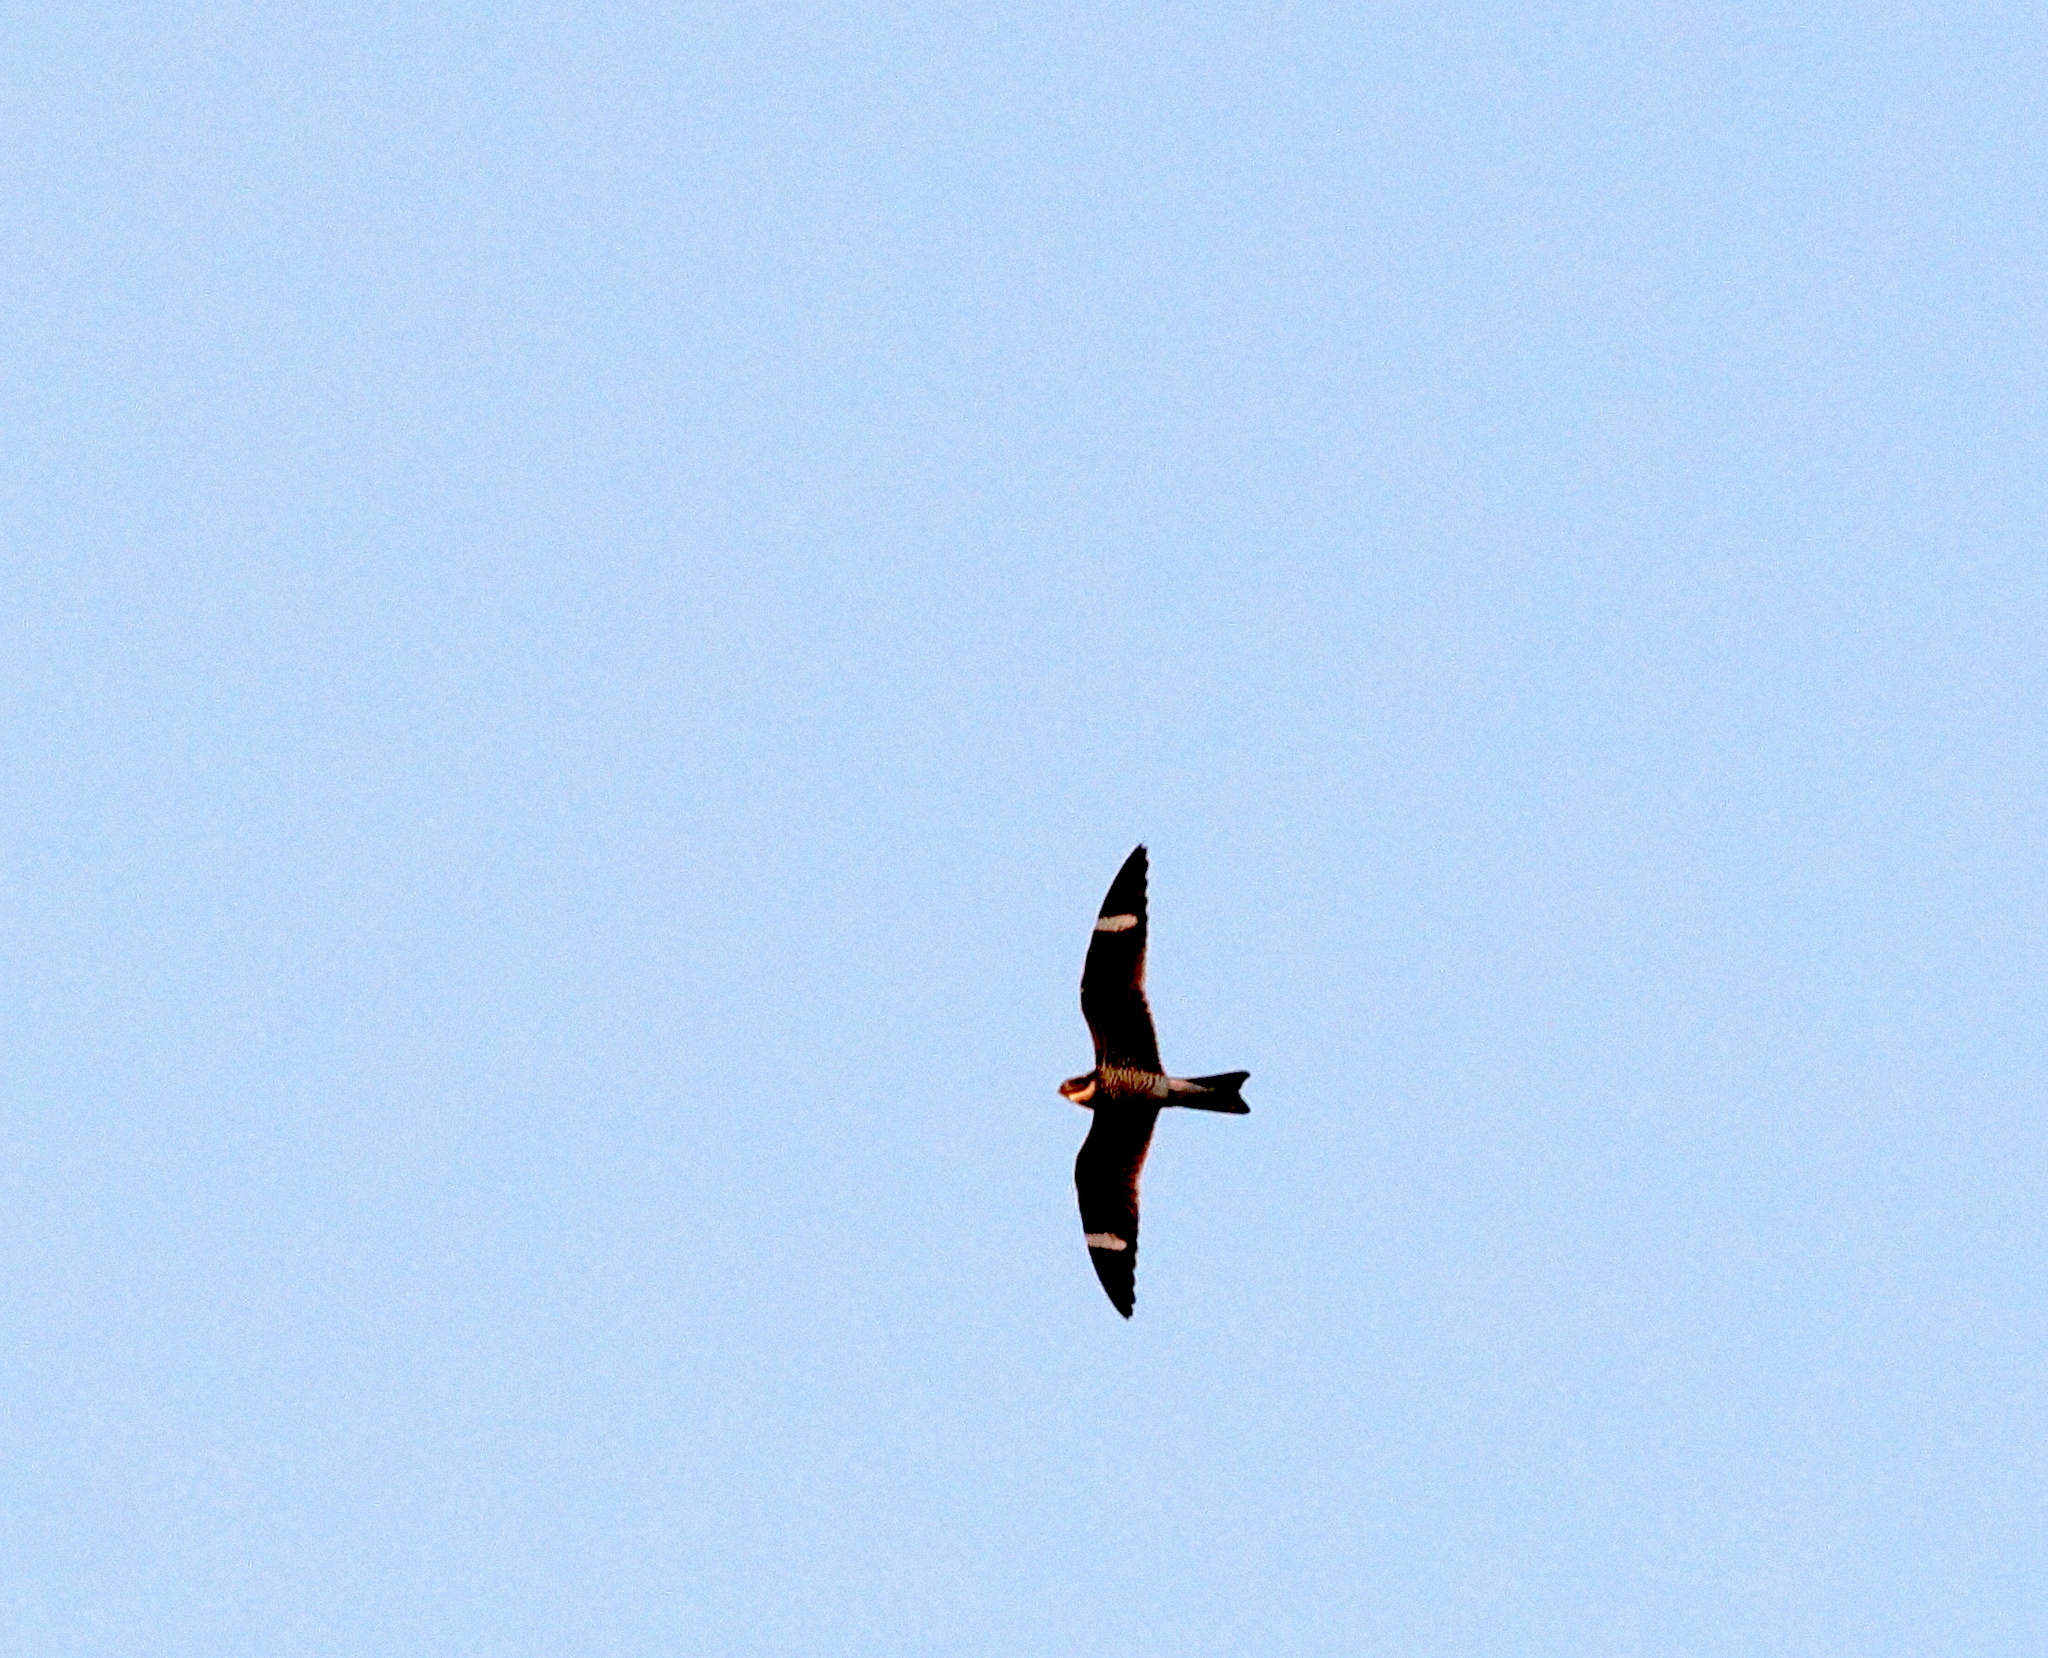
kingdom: Animalia
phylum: Chordata
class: Aves
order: Caprimulgiformes
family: Caprimulgidae
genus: Chordeiles
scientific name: Chordeiles minor
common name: Common nighthawk
